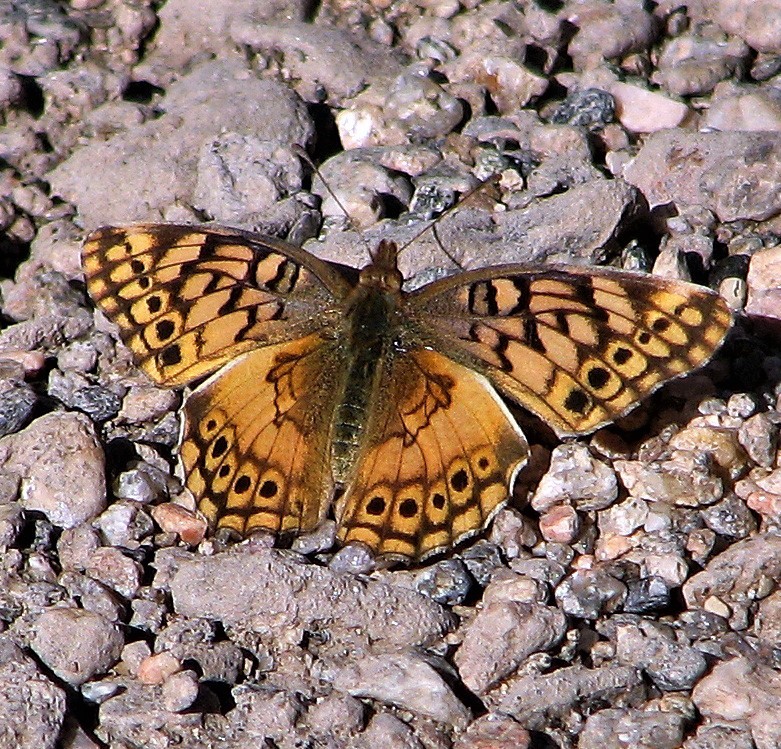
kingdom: Animalia
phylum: Arthropoda
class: Insecta
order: Lepidoptera
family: Nymphalidae
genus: Euptoieta
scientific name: Euptoieta hortensia
